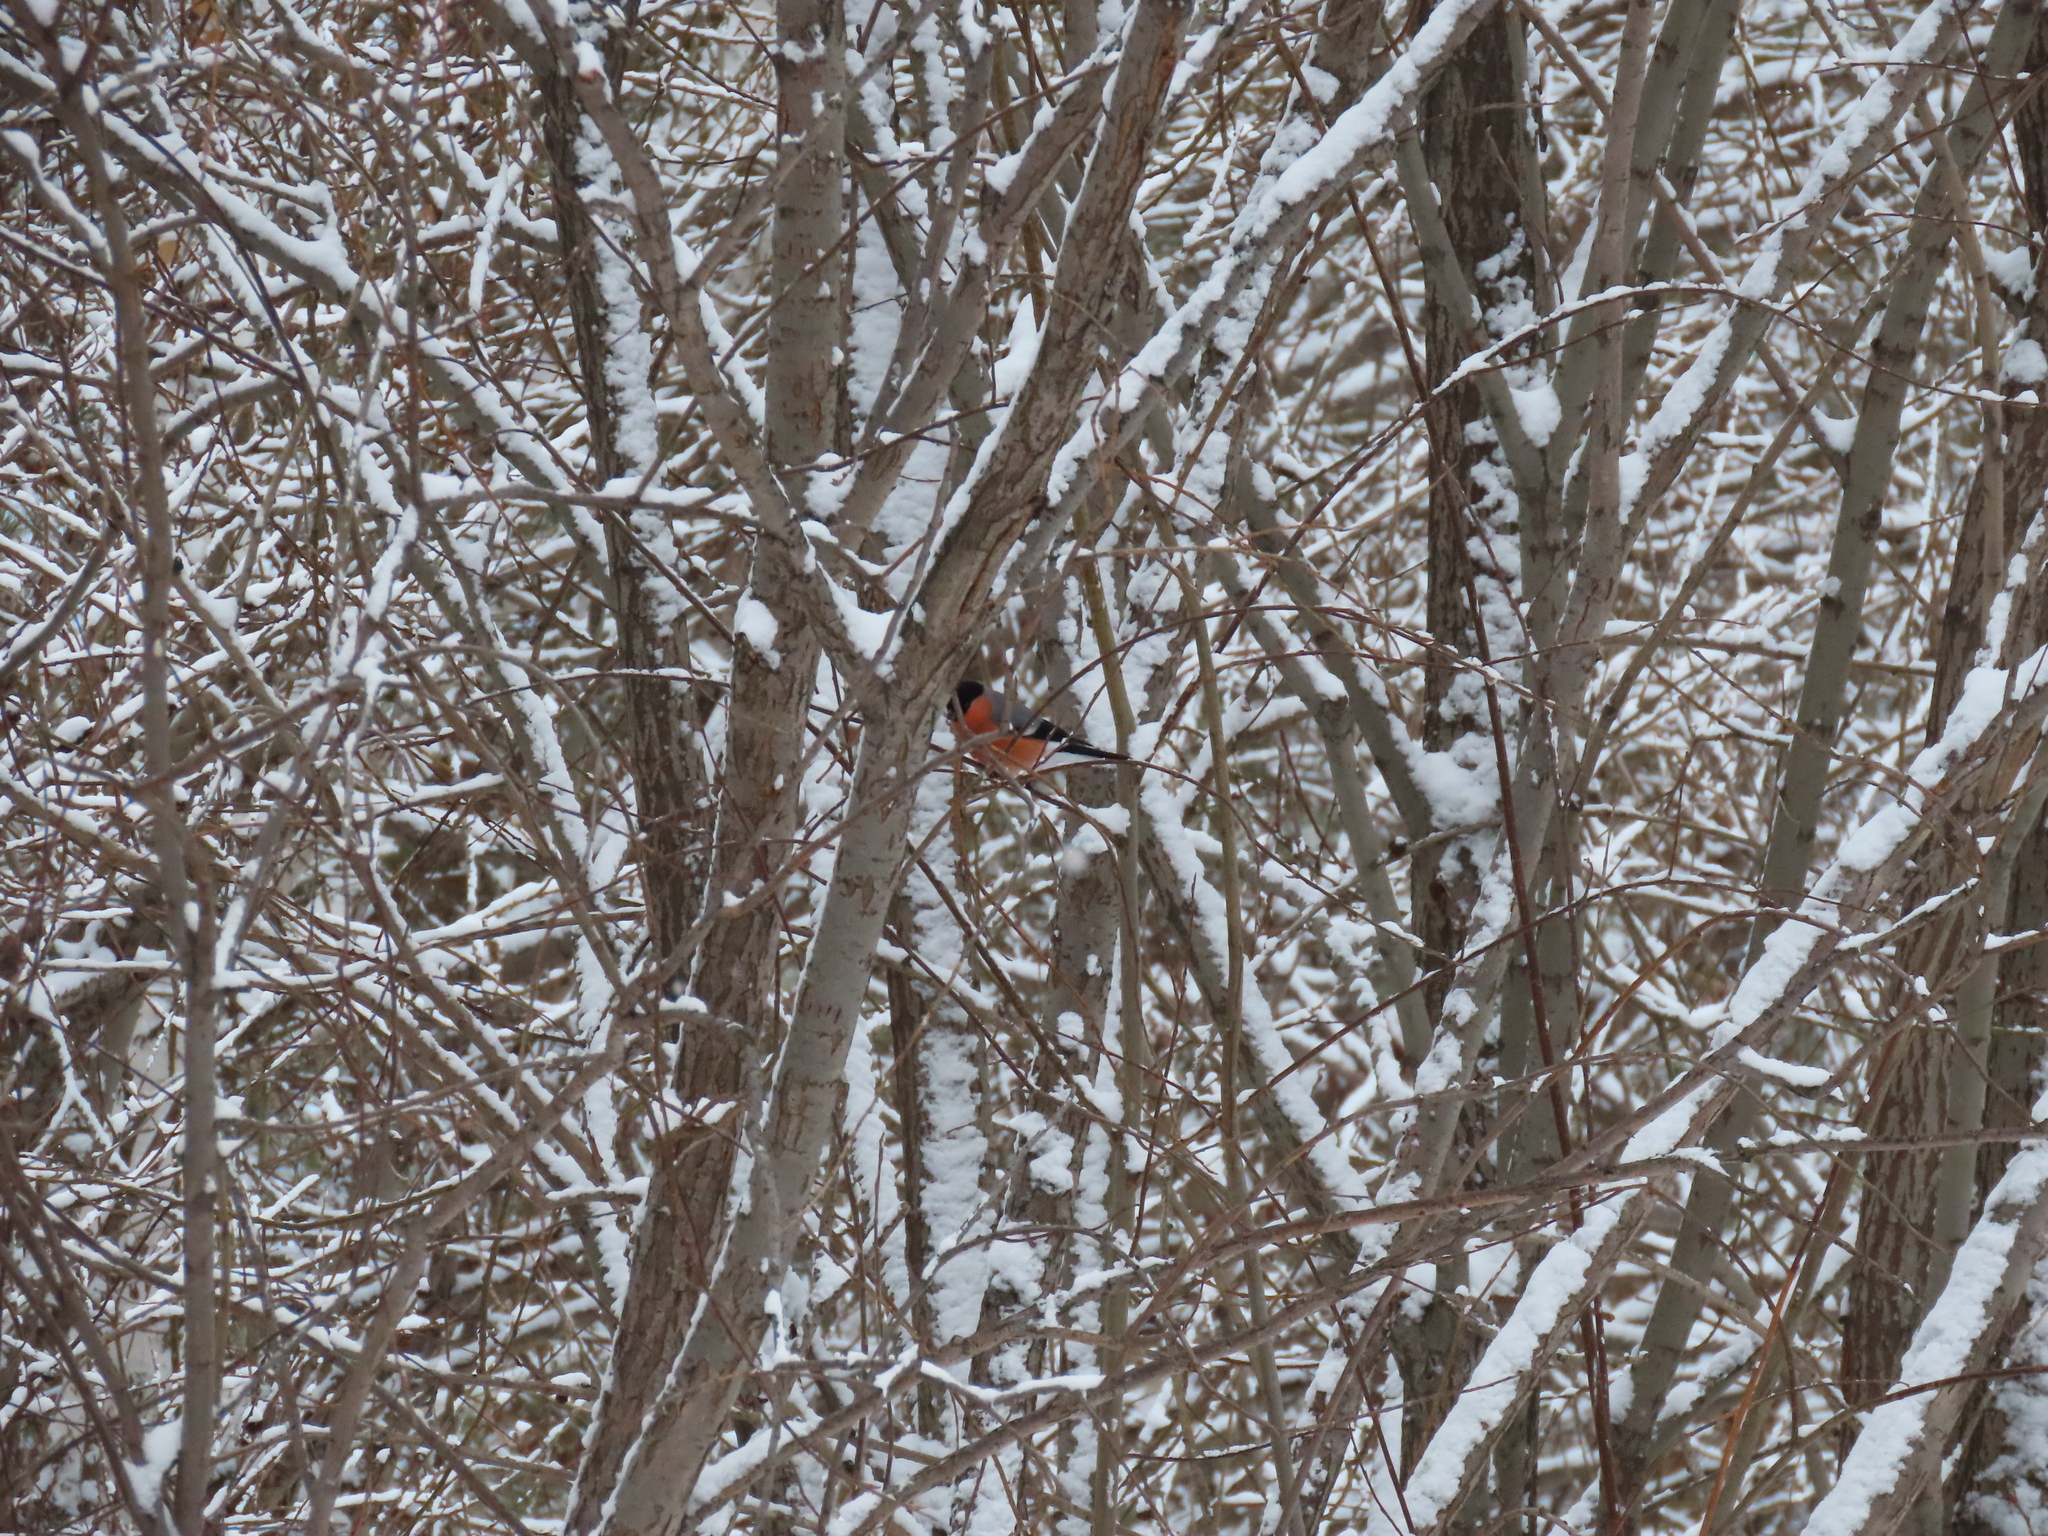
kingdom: Animalia
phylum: Chordata
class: Aves
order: Passeriformes
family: Fringillidae
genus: Pyrrhula
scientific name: Pyrrhula pyrrhula
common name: Eurasian bullfinch
